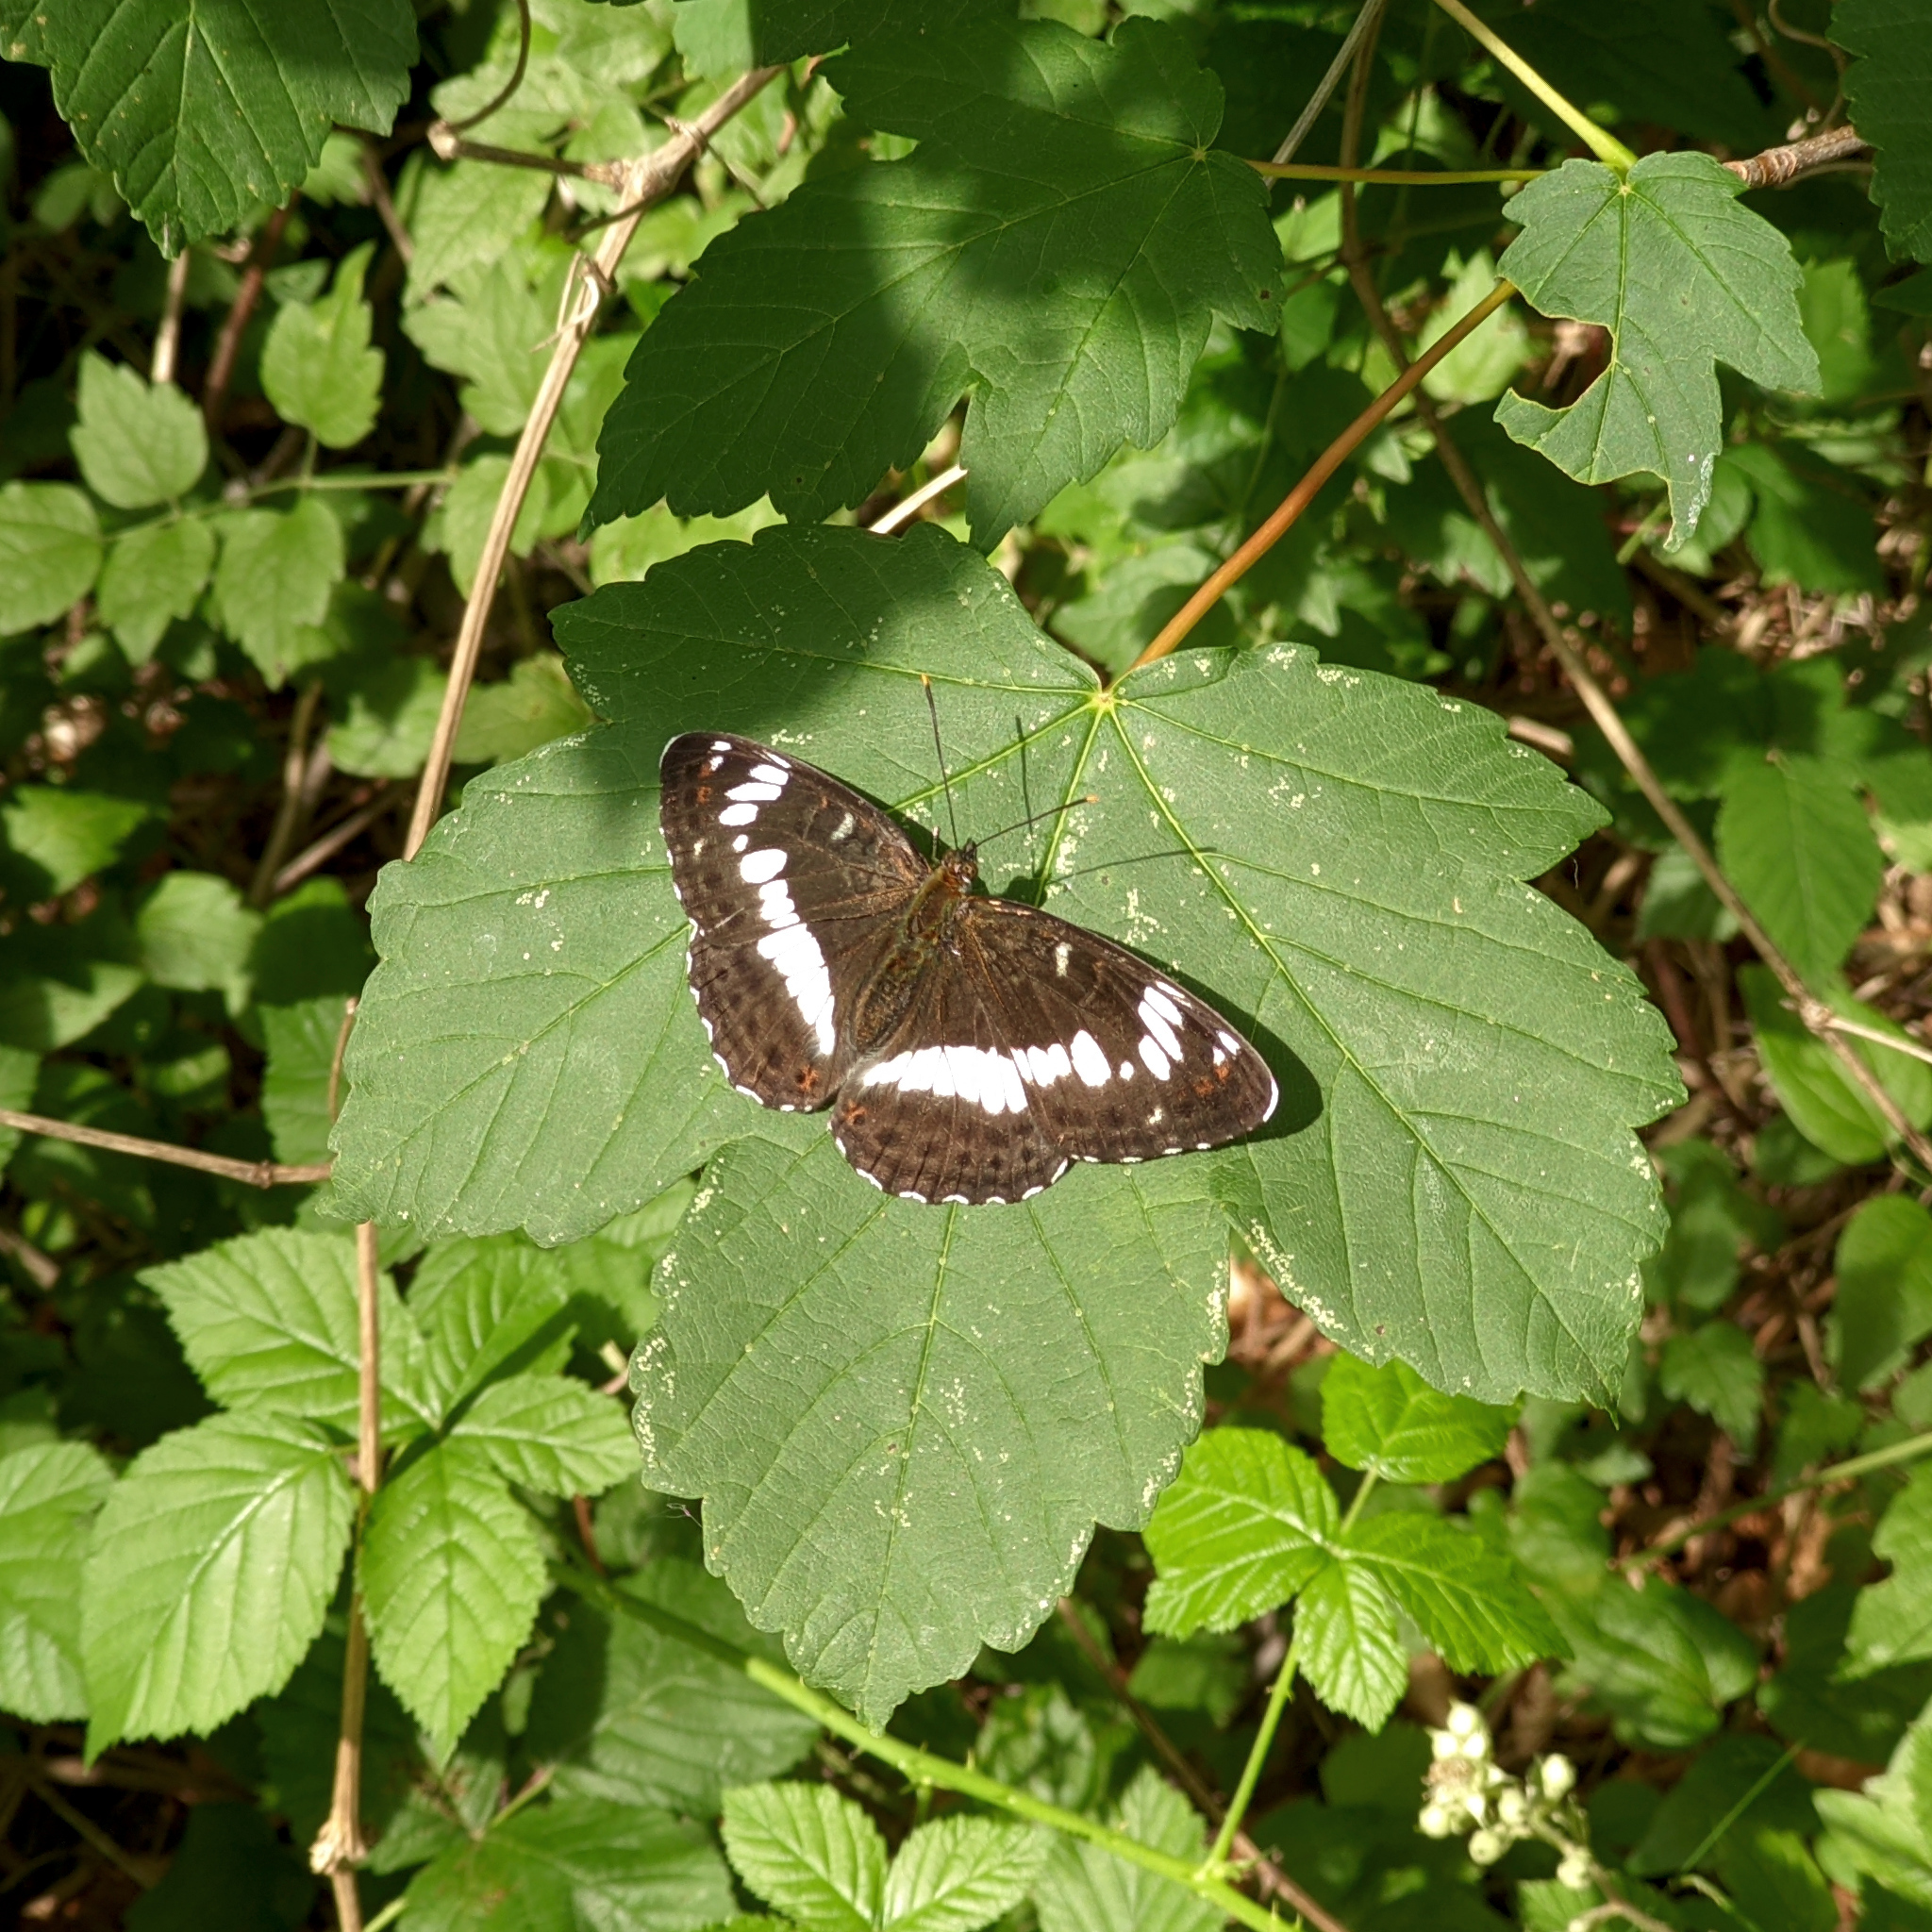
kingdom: Animalia
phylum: Arthropoda
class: Insecta
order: Lepidoptera
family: Nymphalidae
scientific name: Nymphalidae
